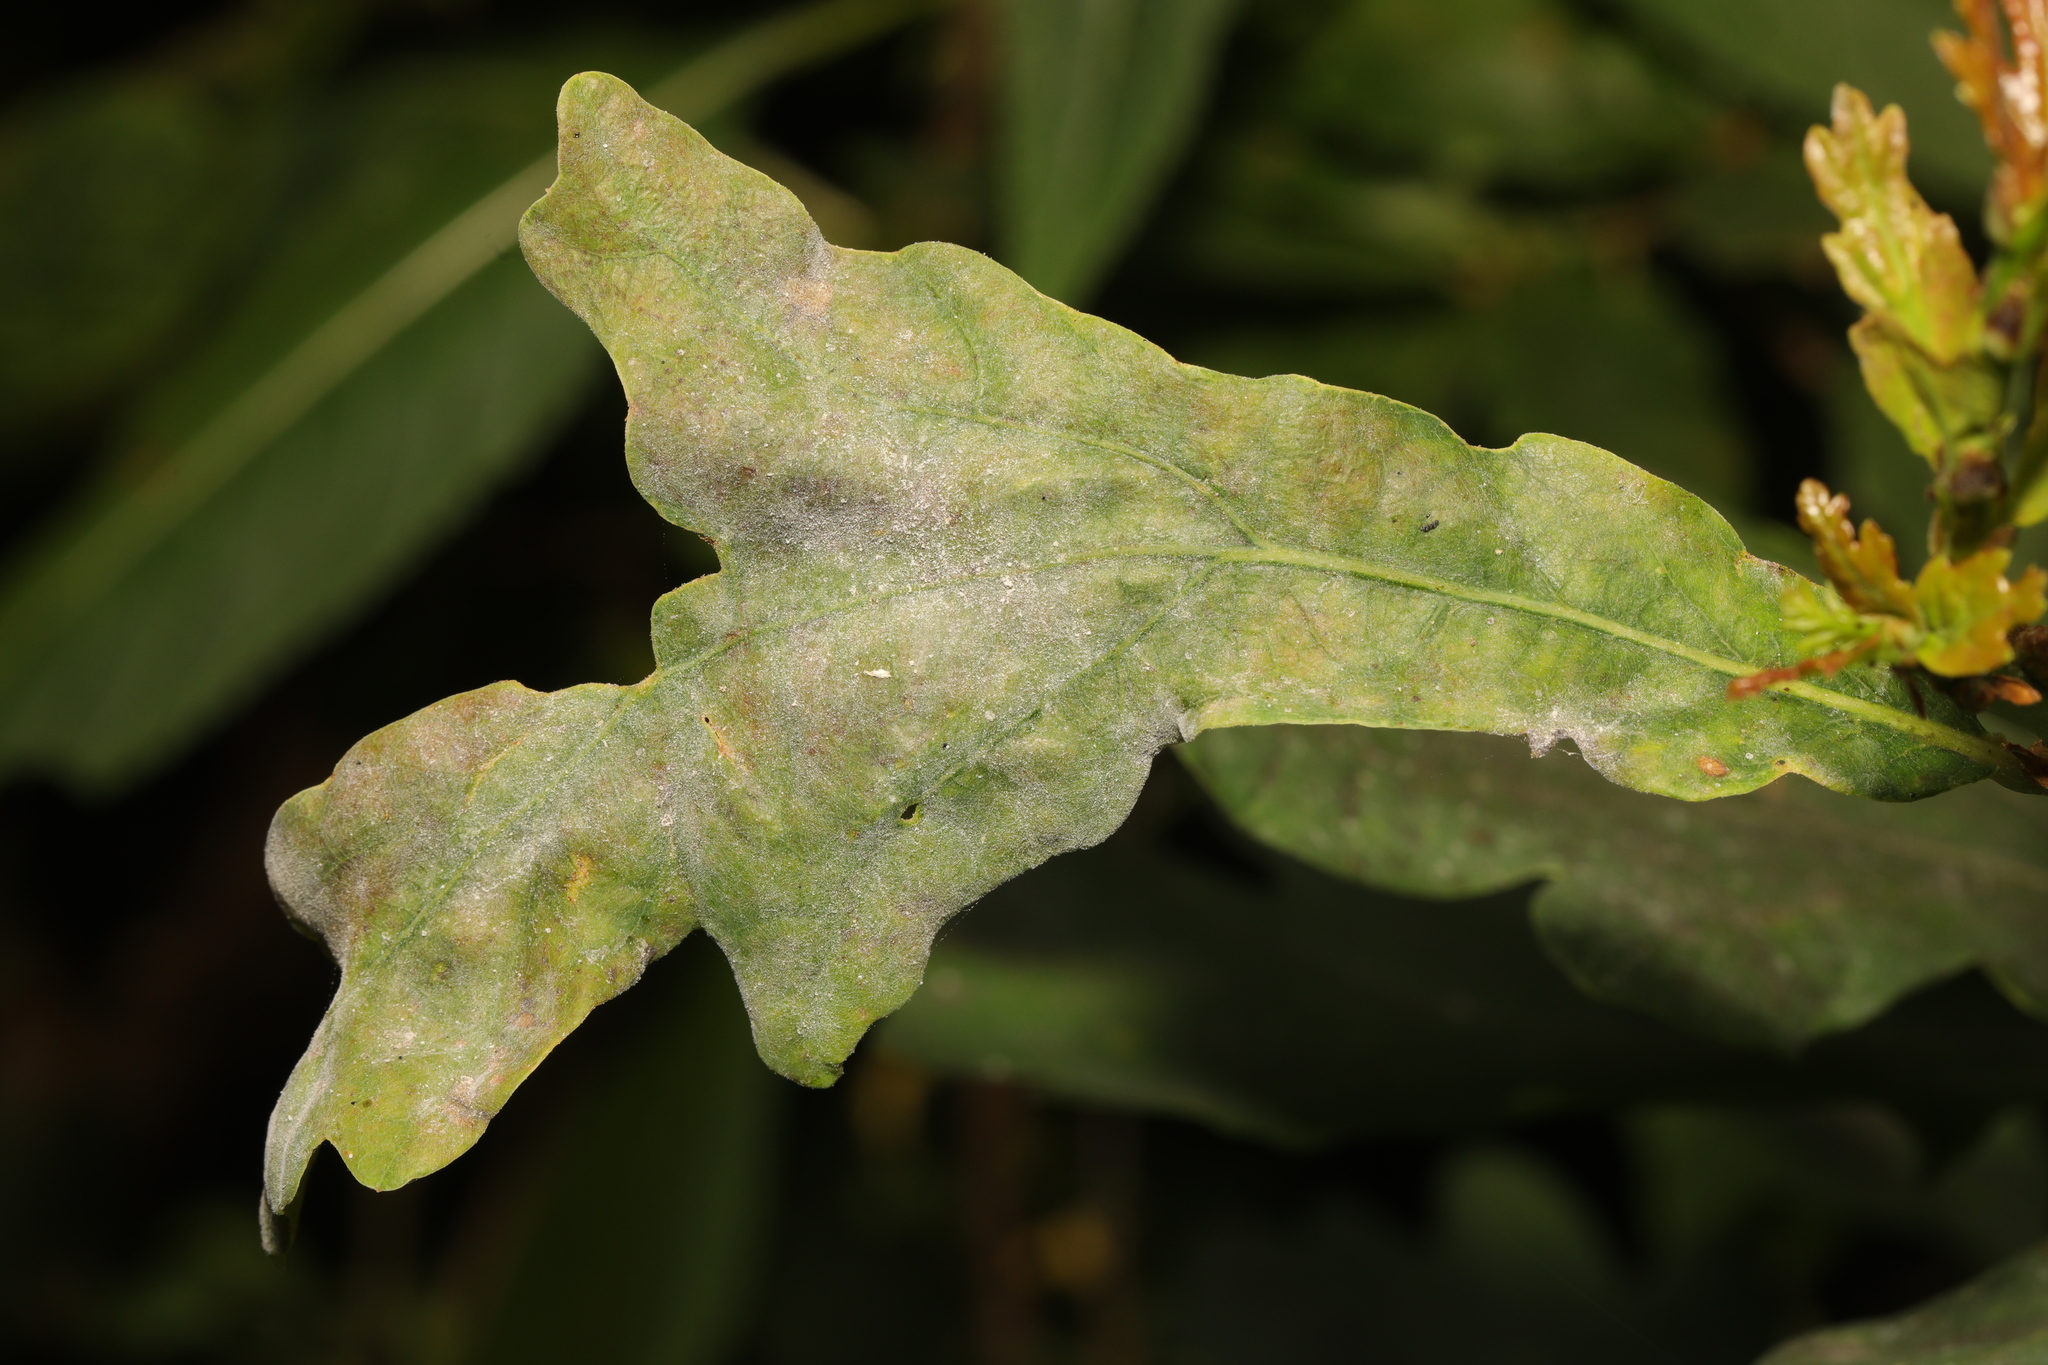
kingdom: Plantae
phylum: Tracheophyta
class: Magnoliopsida
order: Fagales
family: Fagaceae
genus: Quercus
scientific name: Quercus robur
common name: Pedunculate oak
